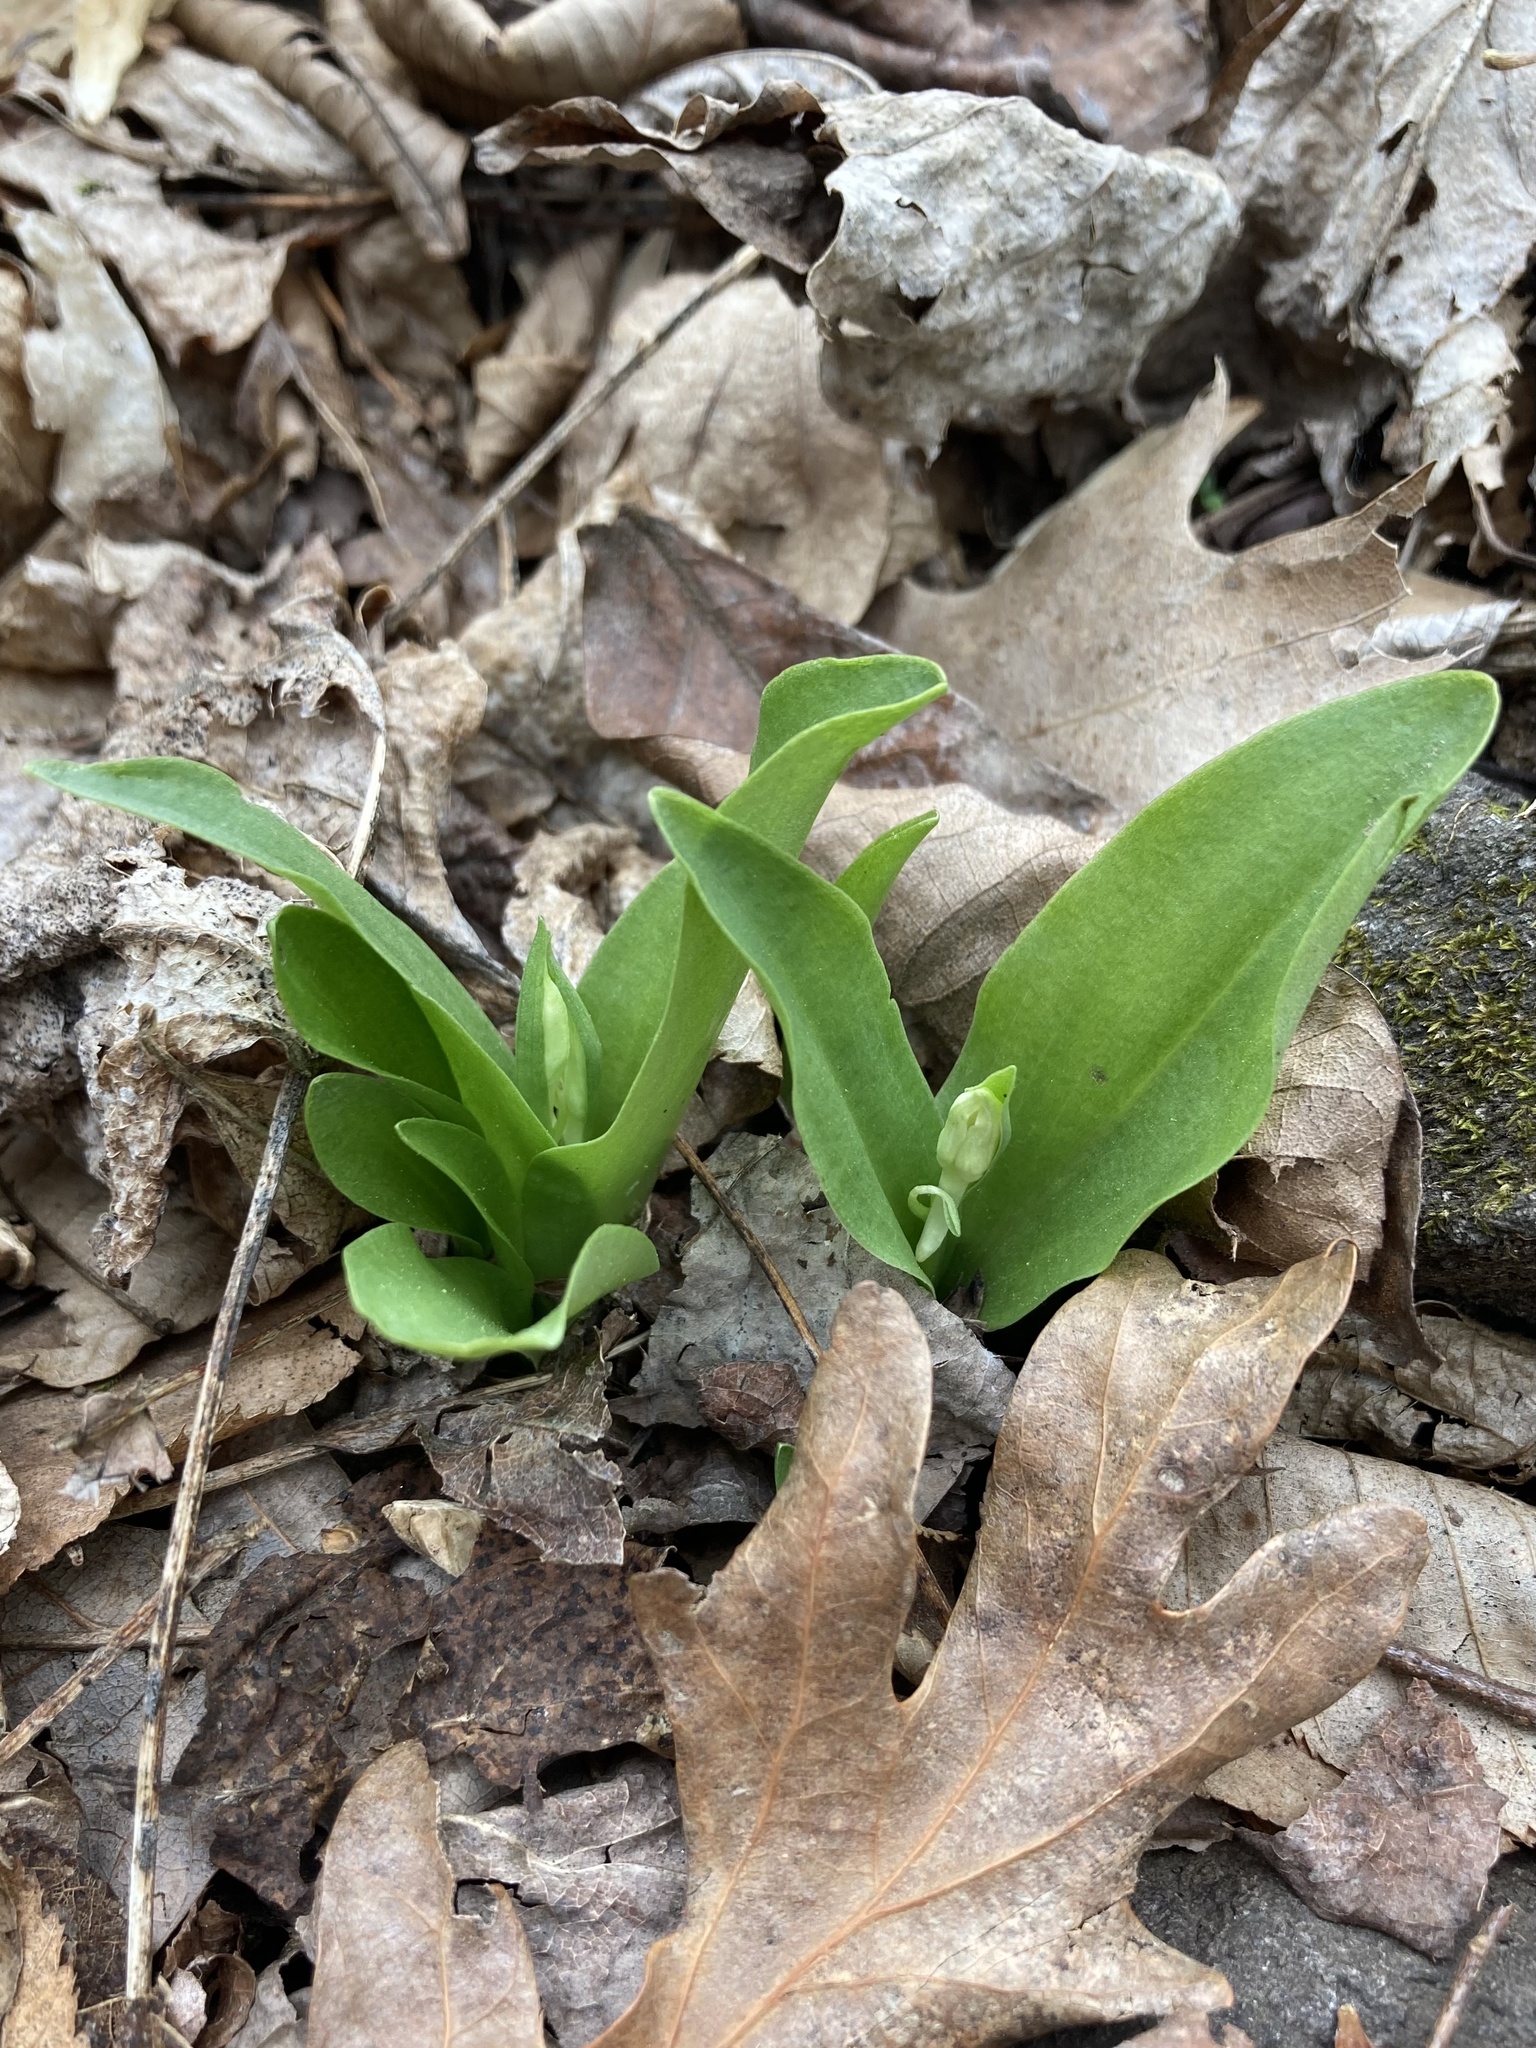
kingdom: Plantae
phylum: Tracheophyta
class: Liliopsida
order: Asparagales
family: Orchidaceae
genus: Galearis
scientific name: Galearis spectabilis
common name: Purple-hooded orchis
